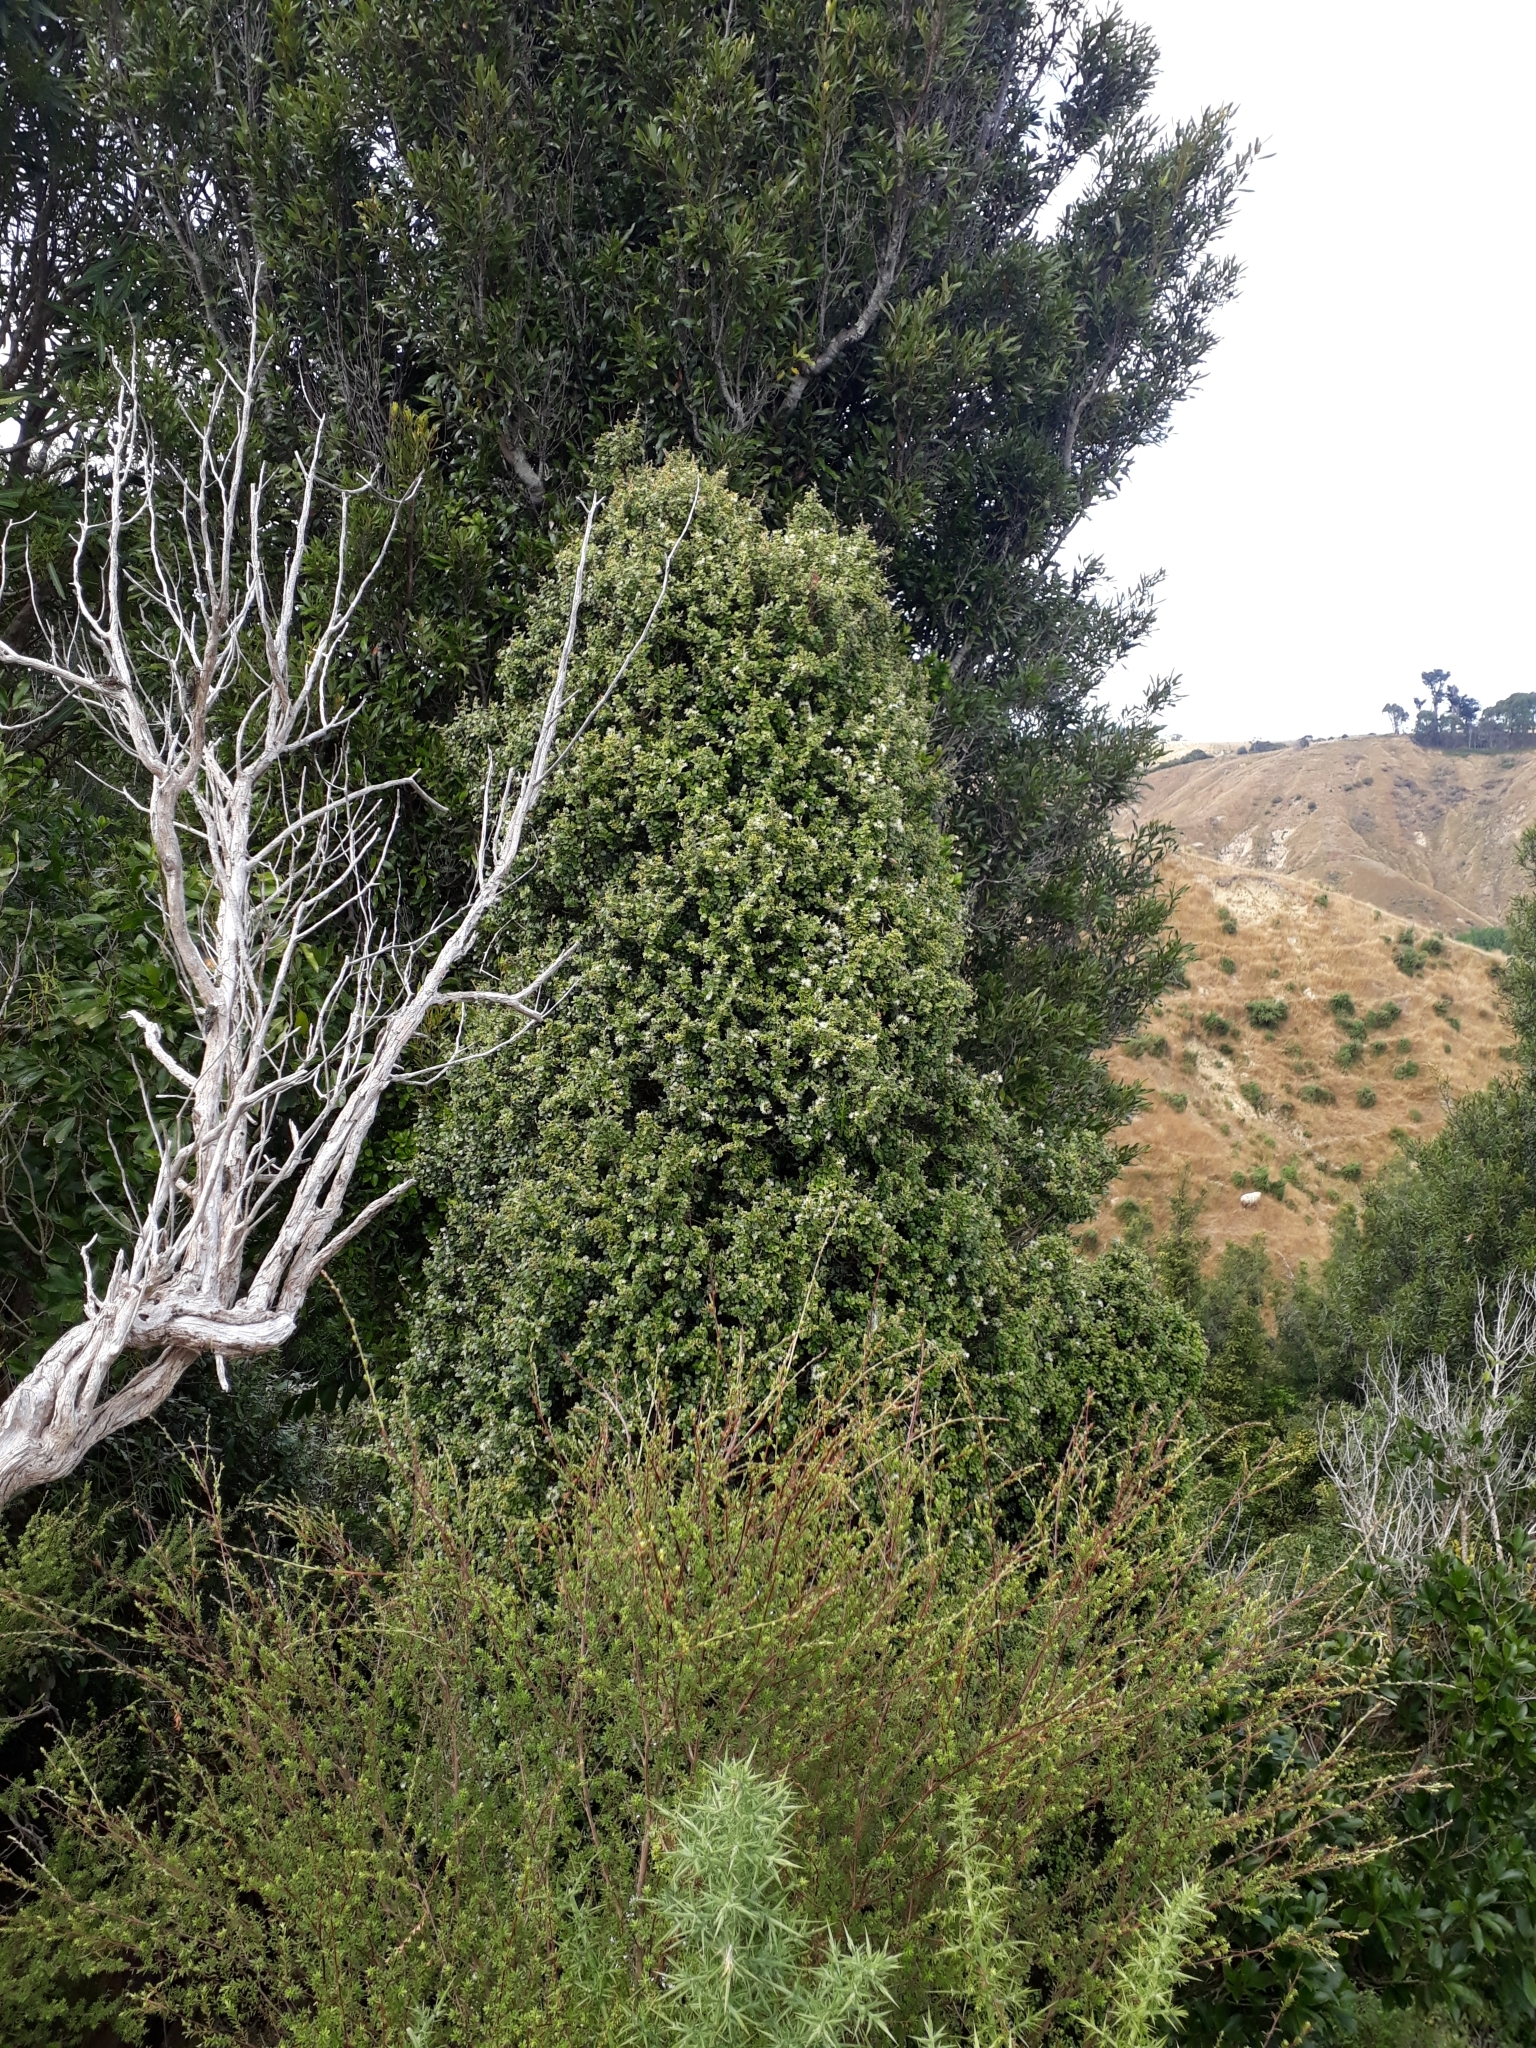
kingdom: Plantae
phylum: Tracheophyta
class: Magnoliopsida
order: Myrtales
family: Myrtaceae
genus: Metrosideros
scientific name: Metrosideros perforata
